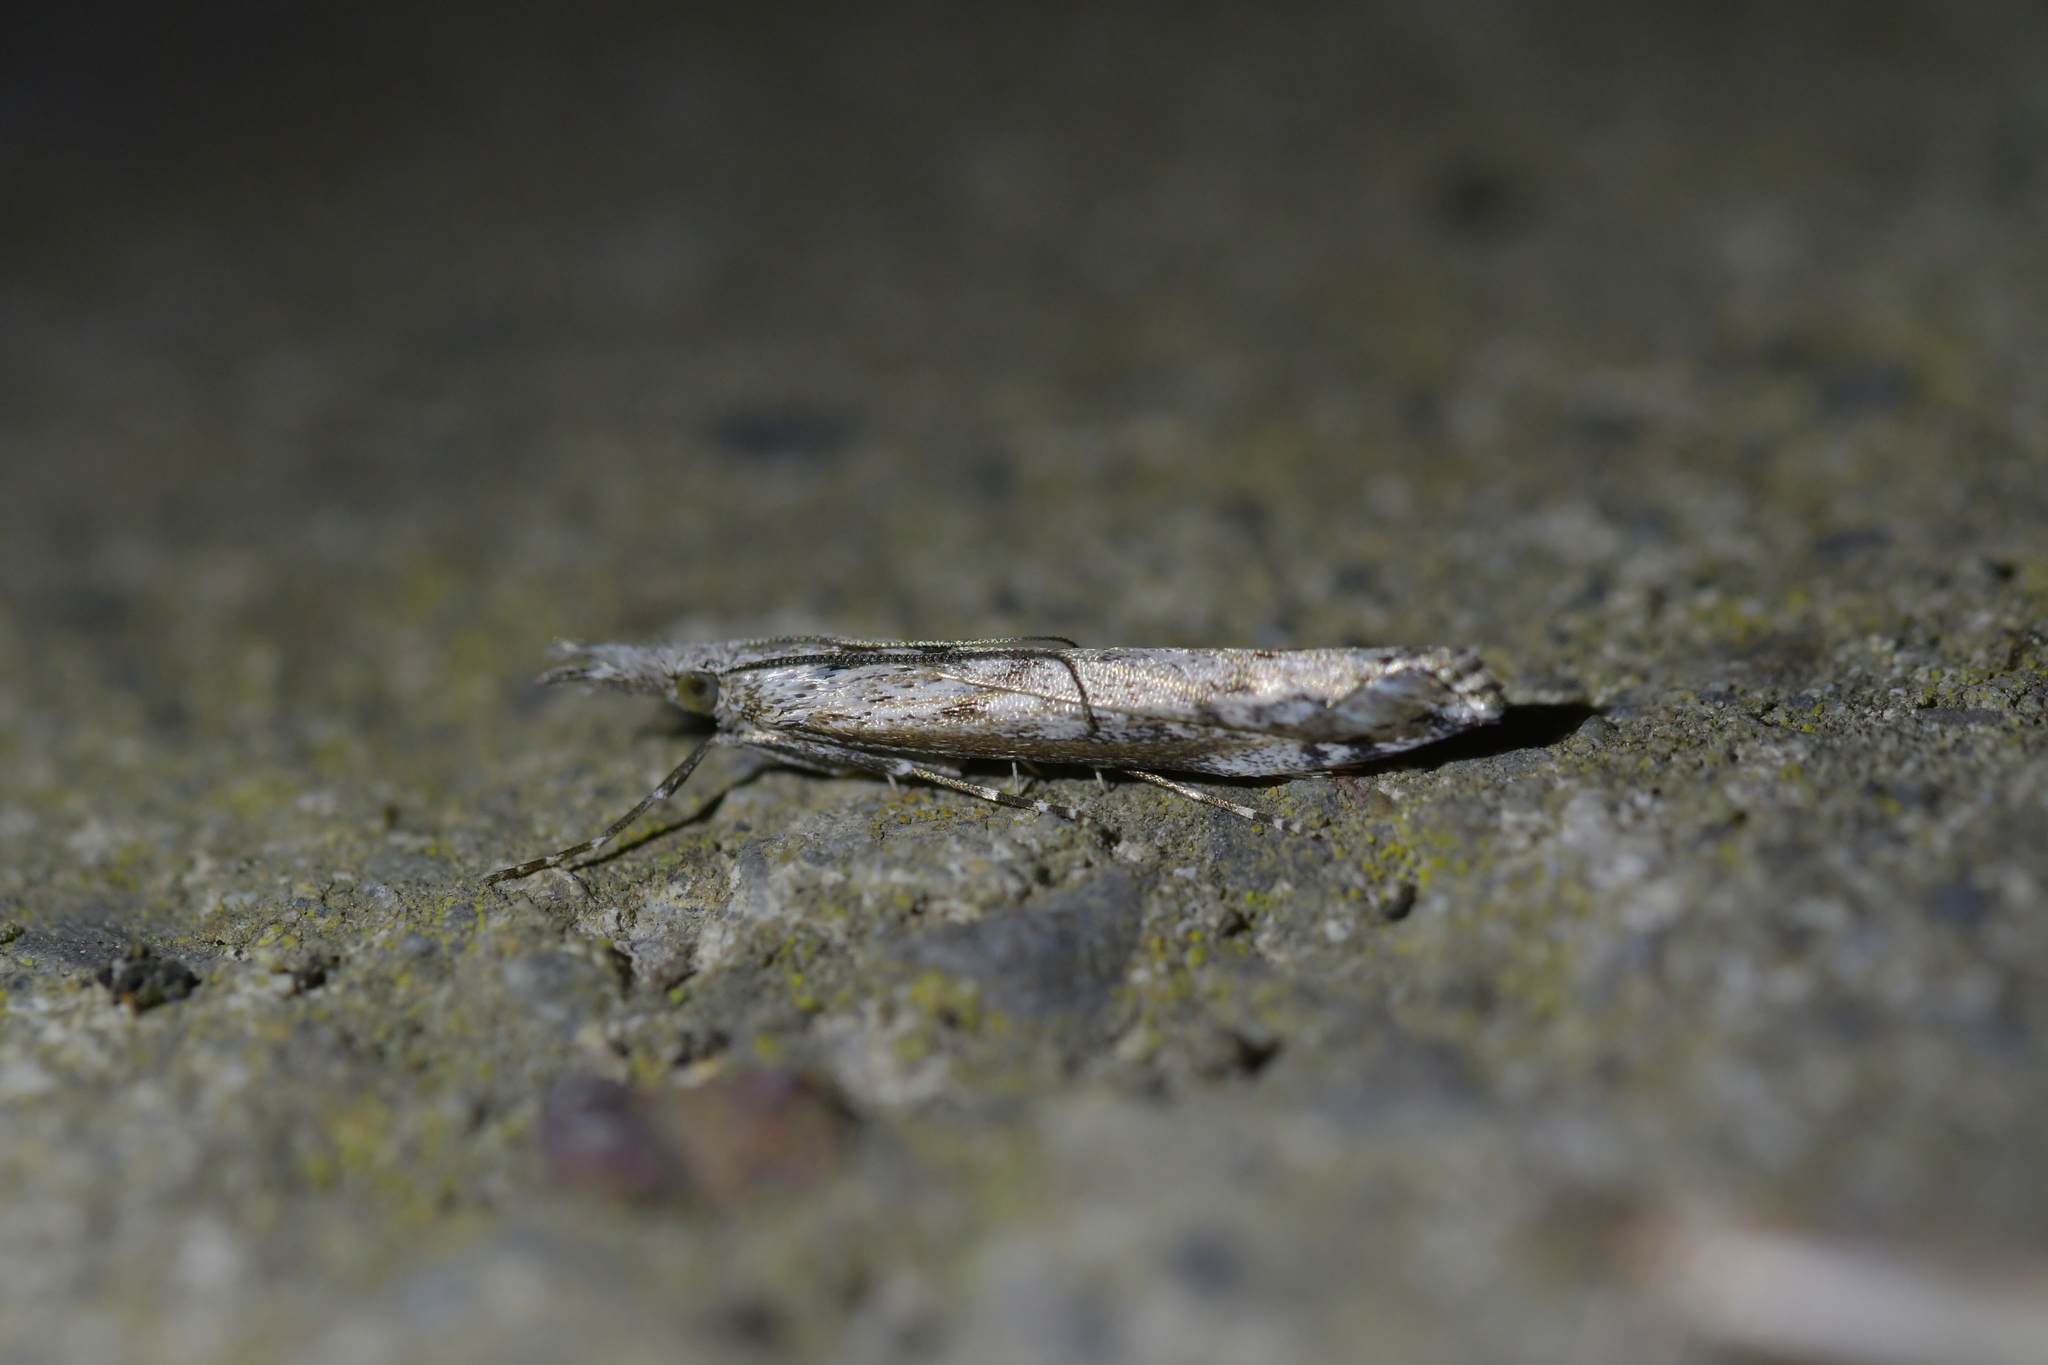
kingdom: Animalia
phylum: Arthropoda
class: Insecta
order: Lepidoptera
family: Crambidae
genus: Orocrambus
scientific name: Orocrambus cyclopicus
